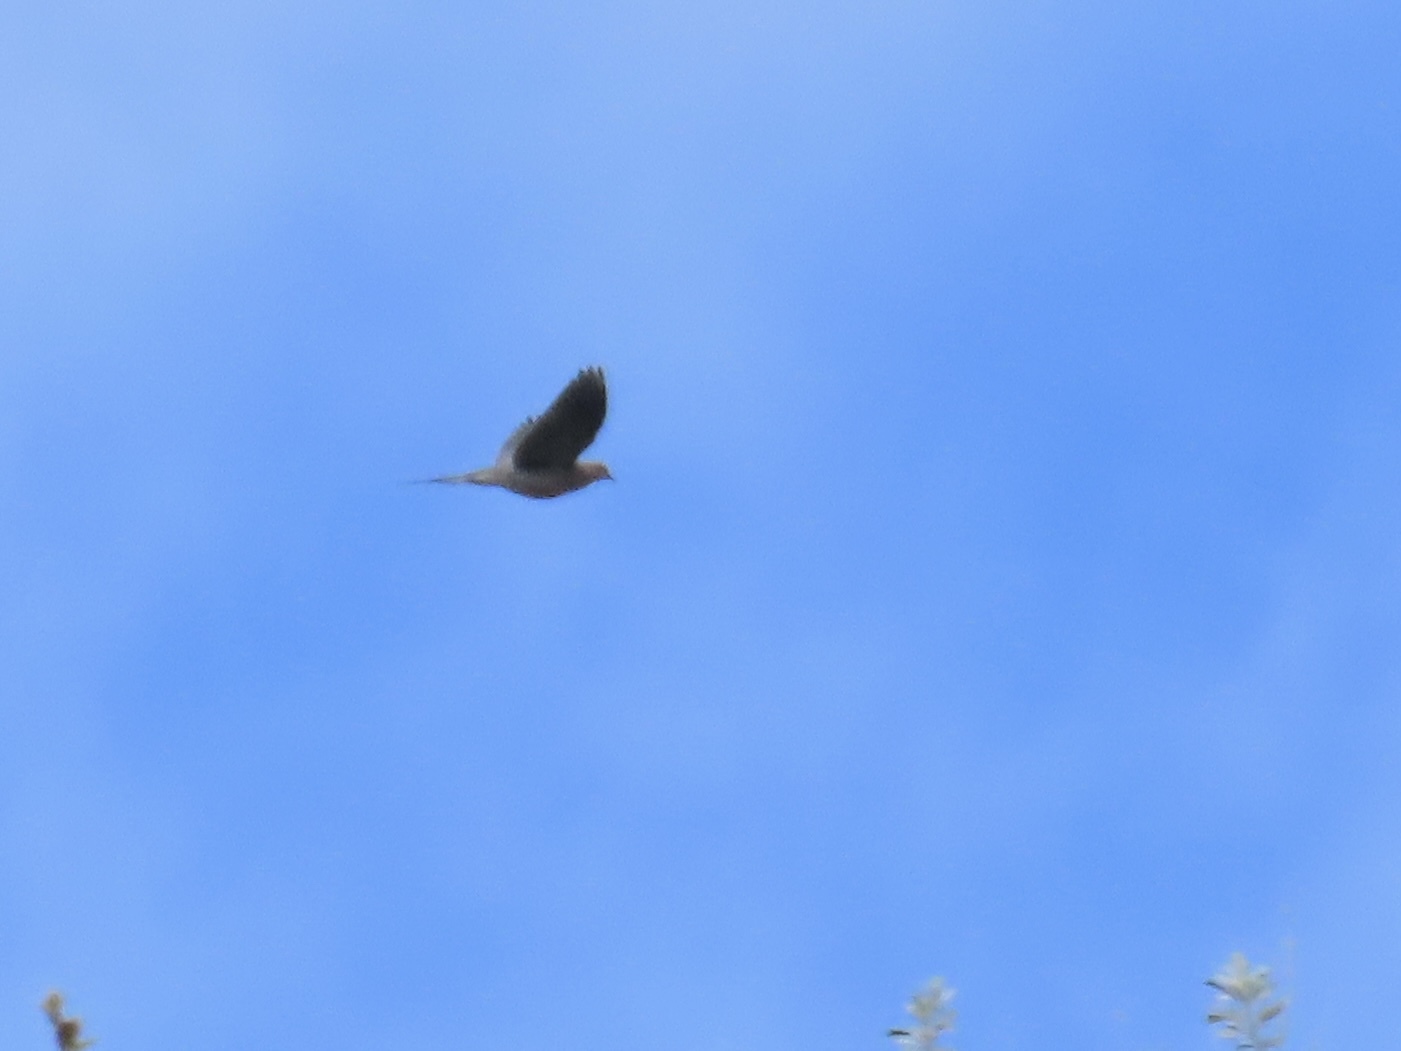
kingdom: Animalia
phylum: Chordata
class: Aves
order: Columbiformes
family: Columbidae
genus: Zenaida
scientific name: Zenaida macroura
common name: Mourning dove
